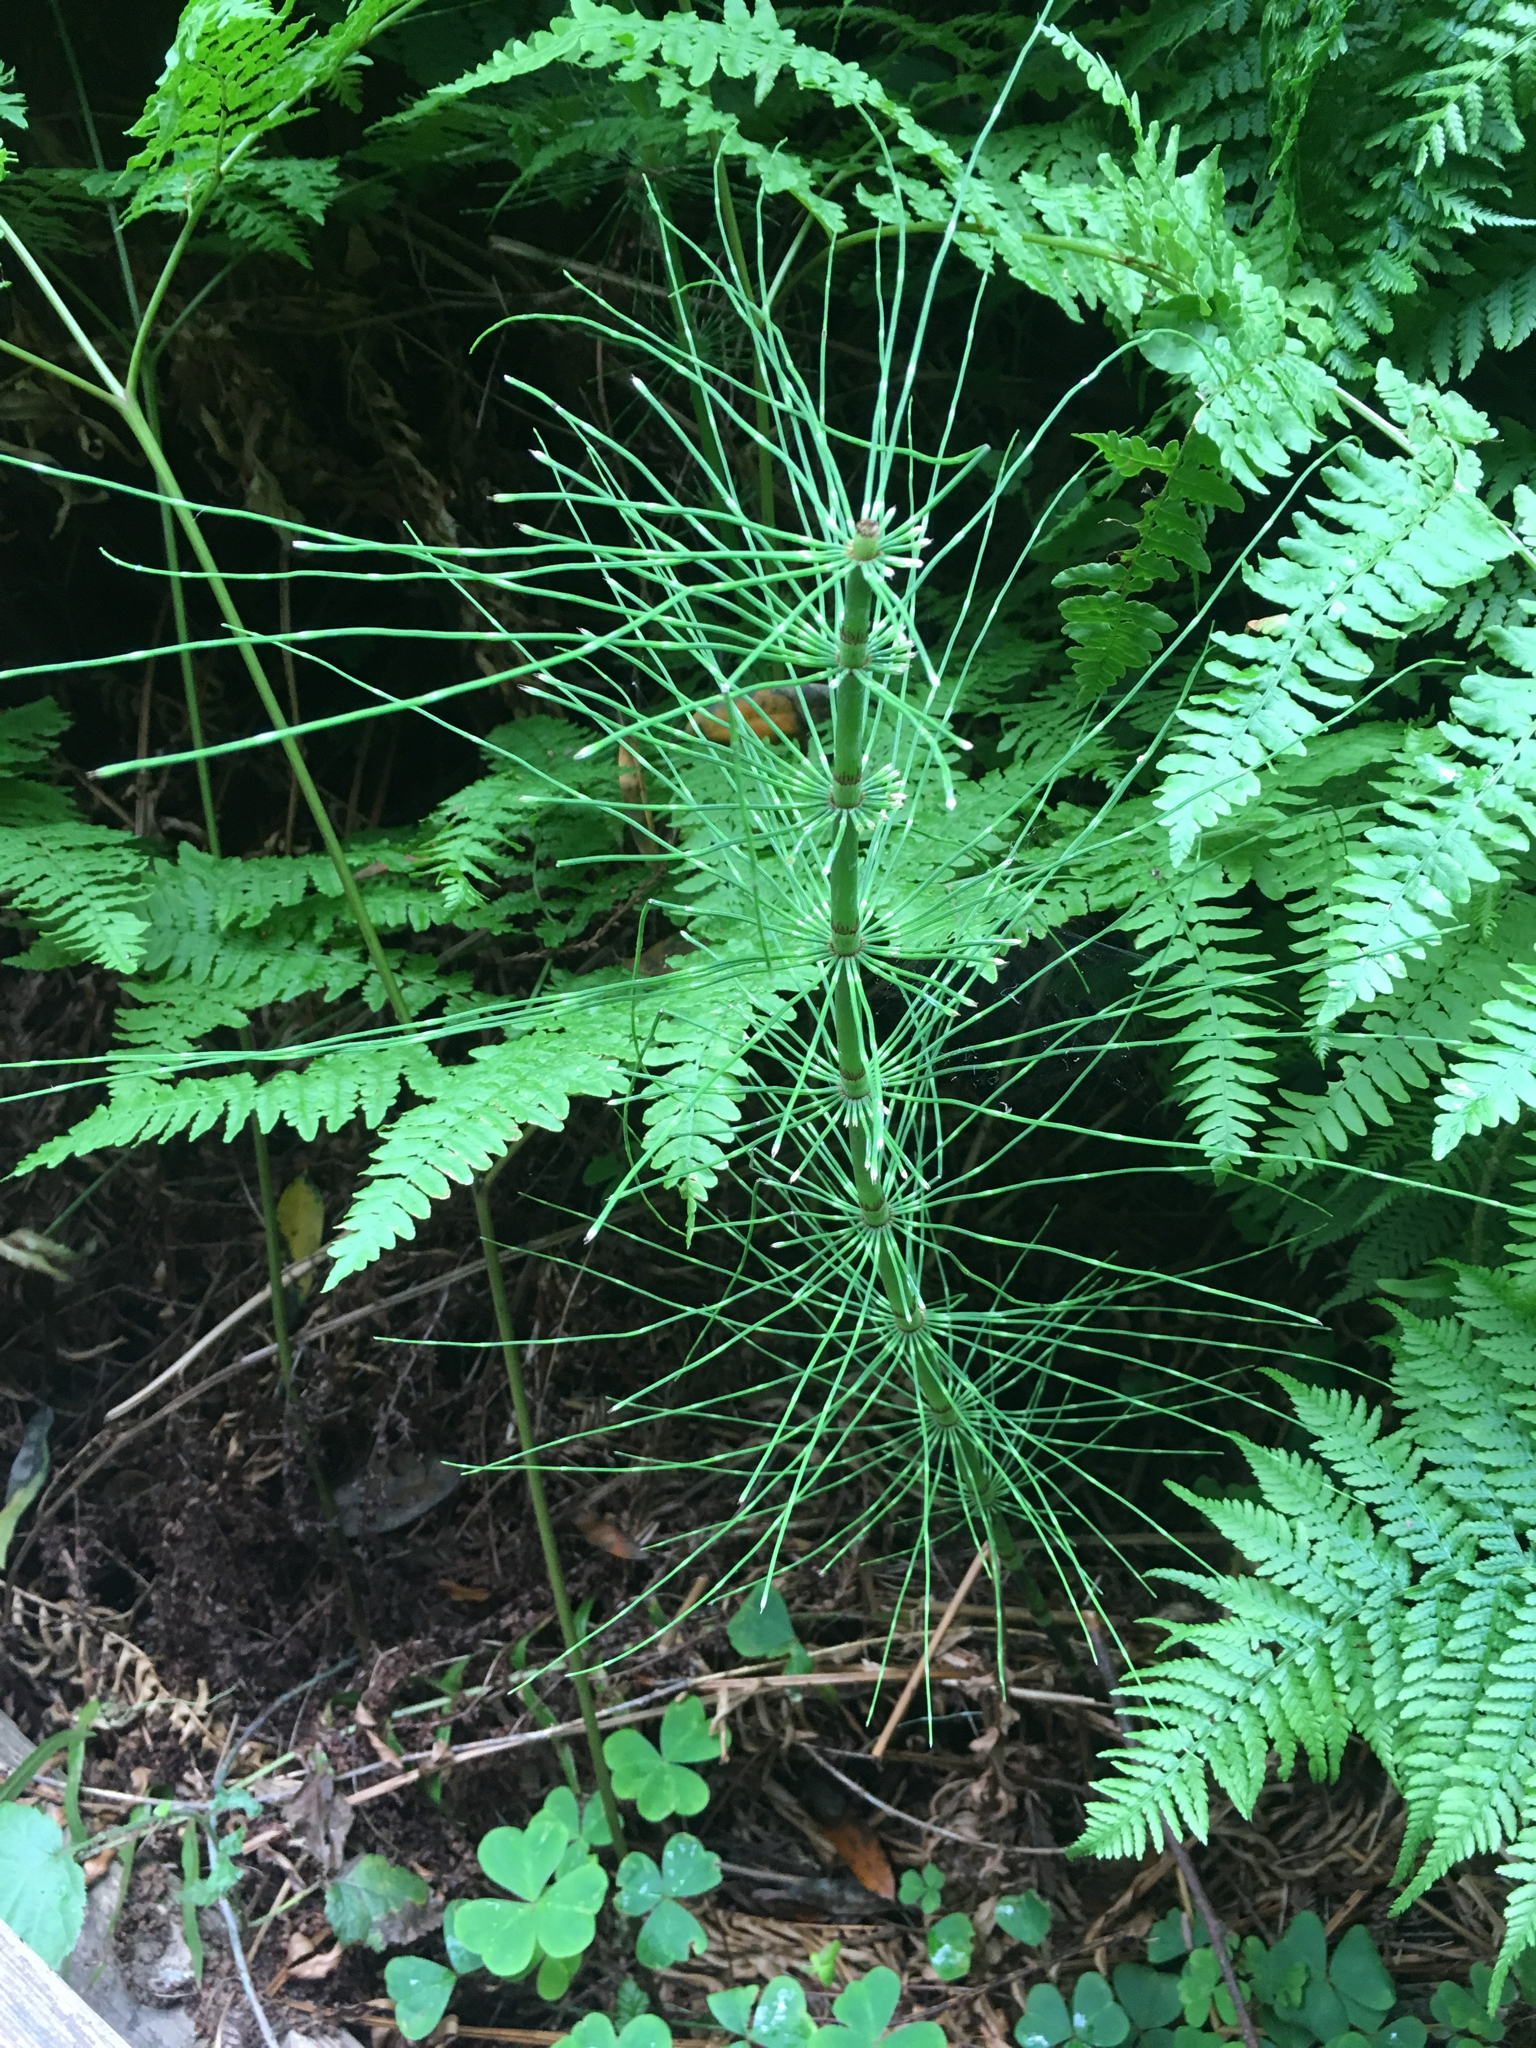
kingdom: Plantae
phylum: Tracheophyta
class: Polypodiopsida
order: Equisetales
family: Equisetaceae
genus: Equisetum
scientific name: Equisetum braunii
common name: Braun's horsetail
